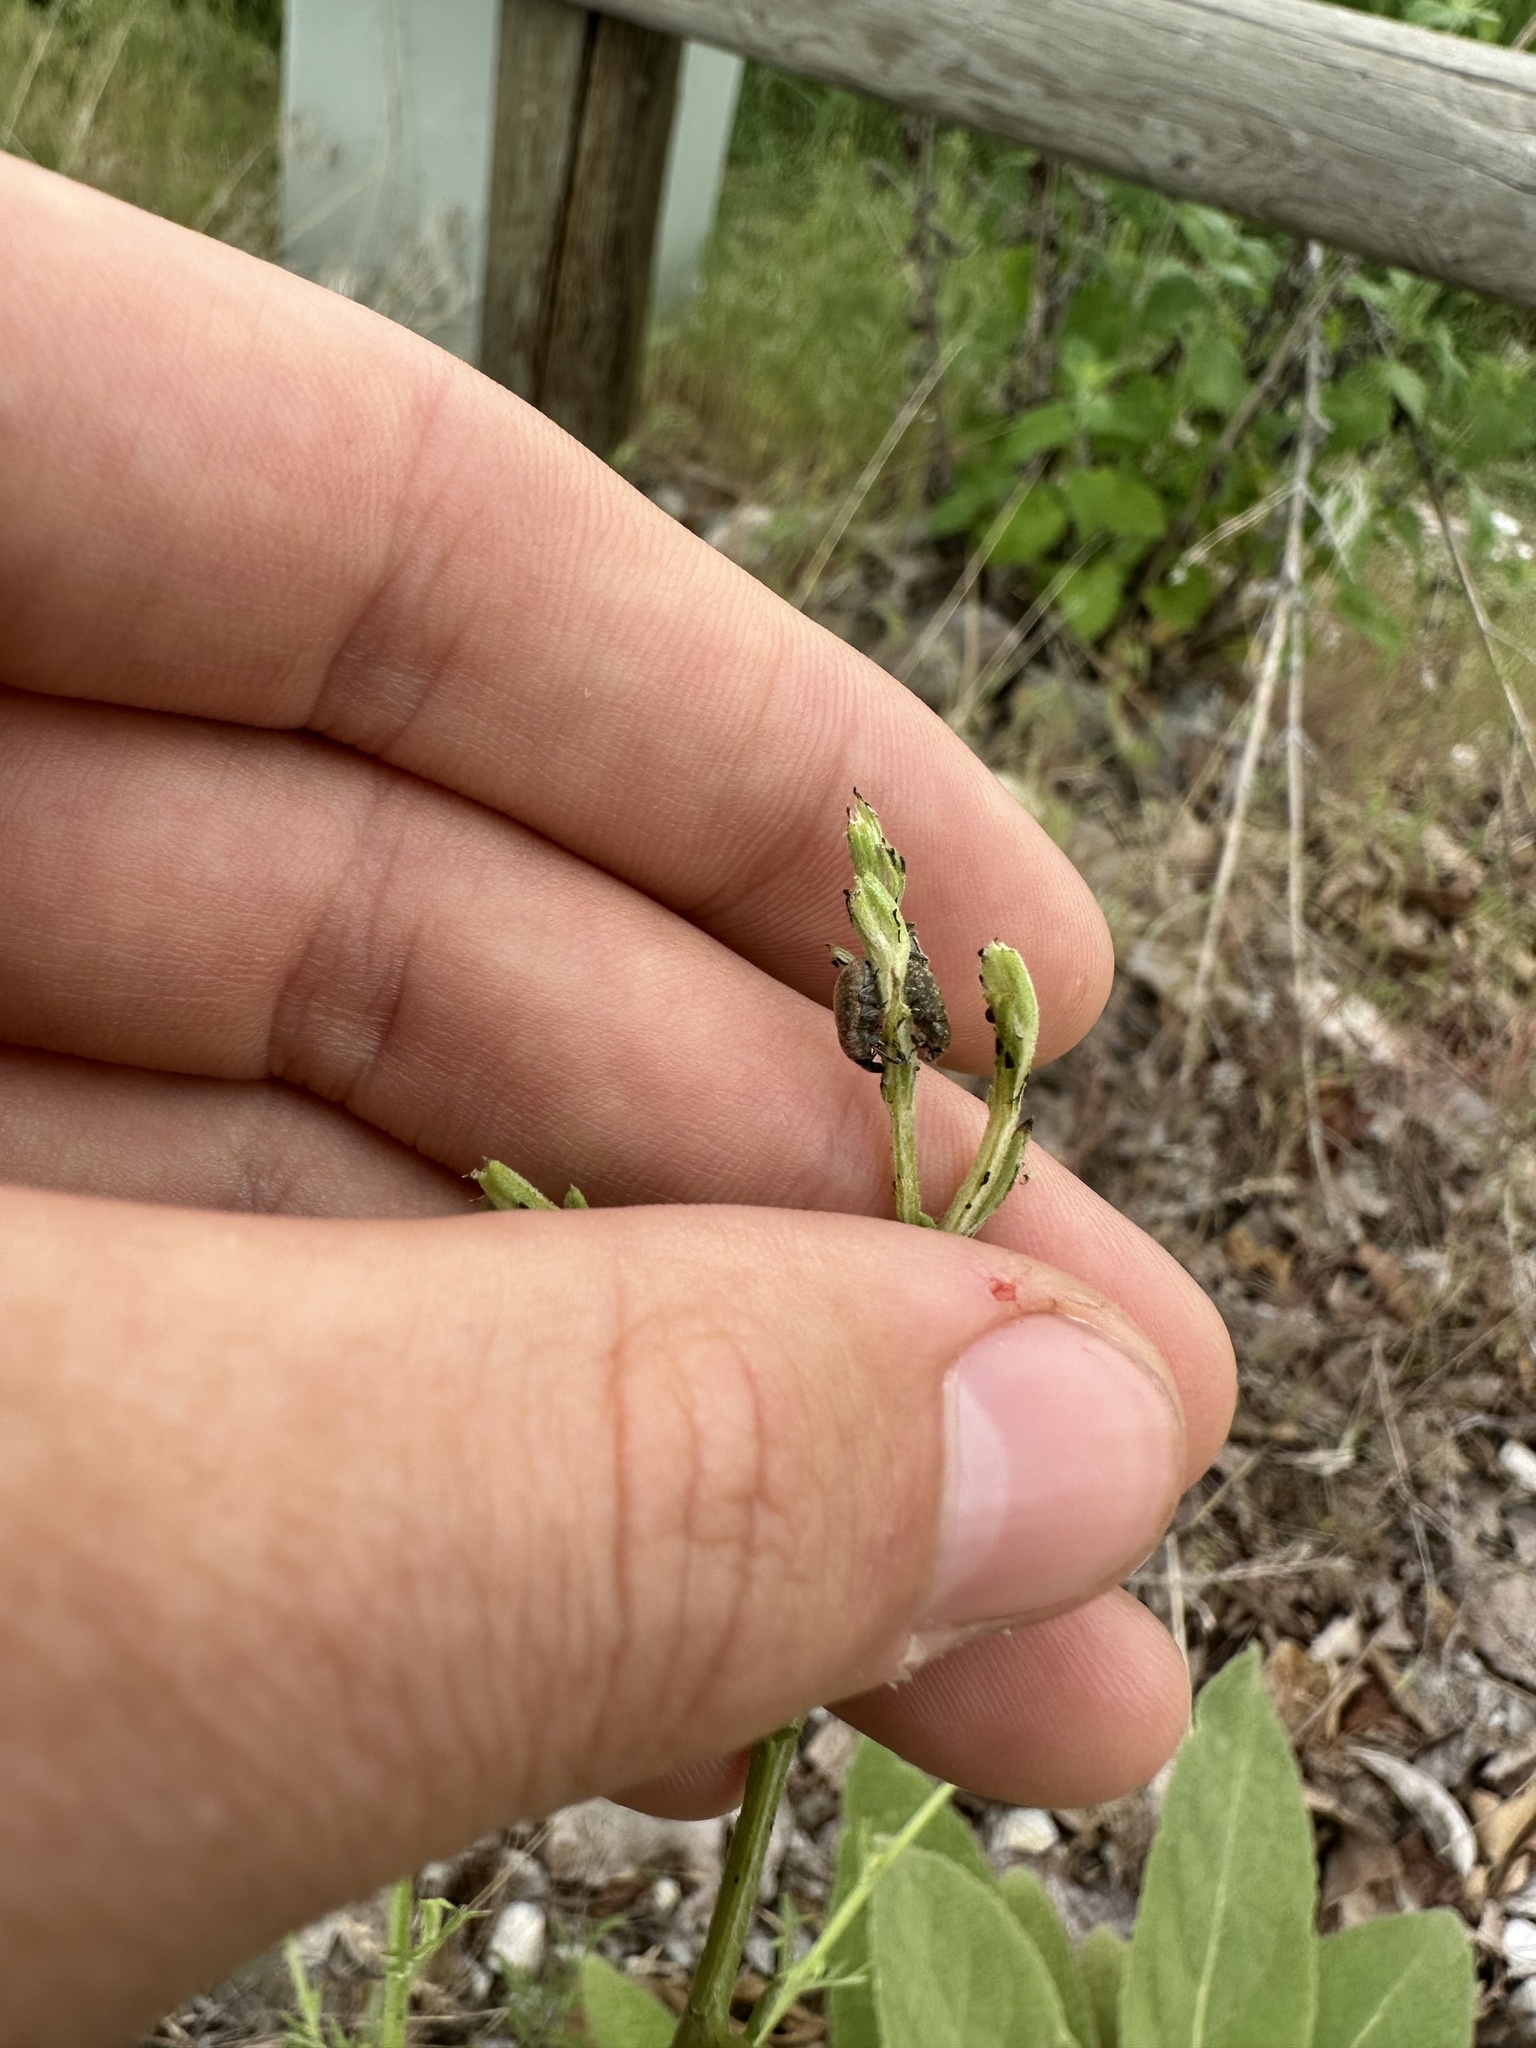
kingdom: Animalia
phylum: Arthropoda
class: Insecta
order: Coleoptera
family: Curculionidae
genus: Bangasternus
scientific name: Bangasternus fausti
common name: Broad-nosed knapweed seedhead weevil
